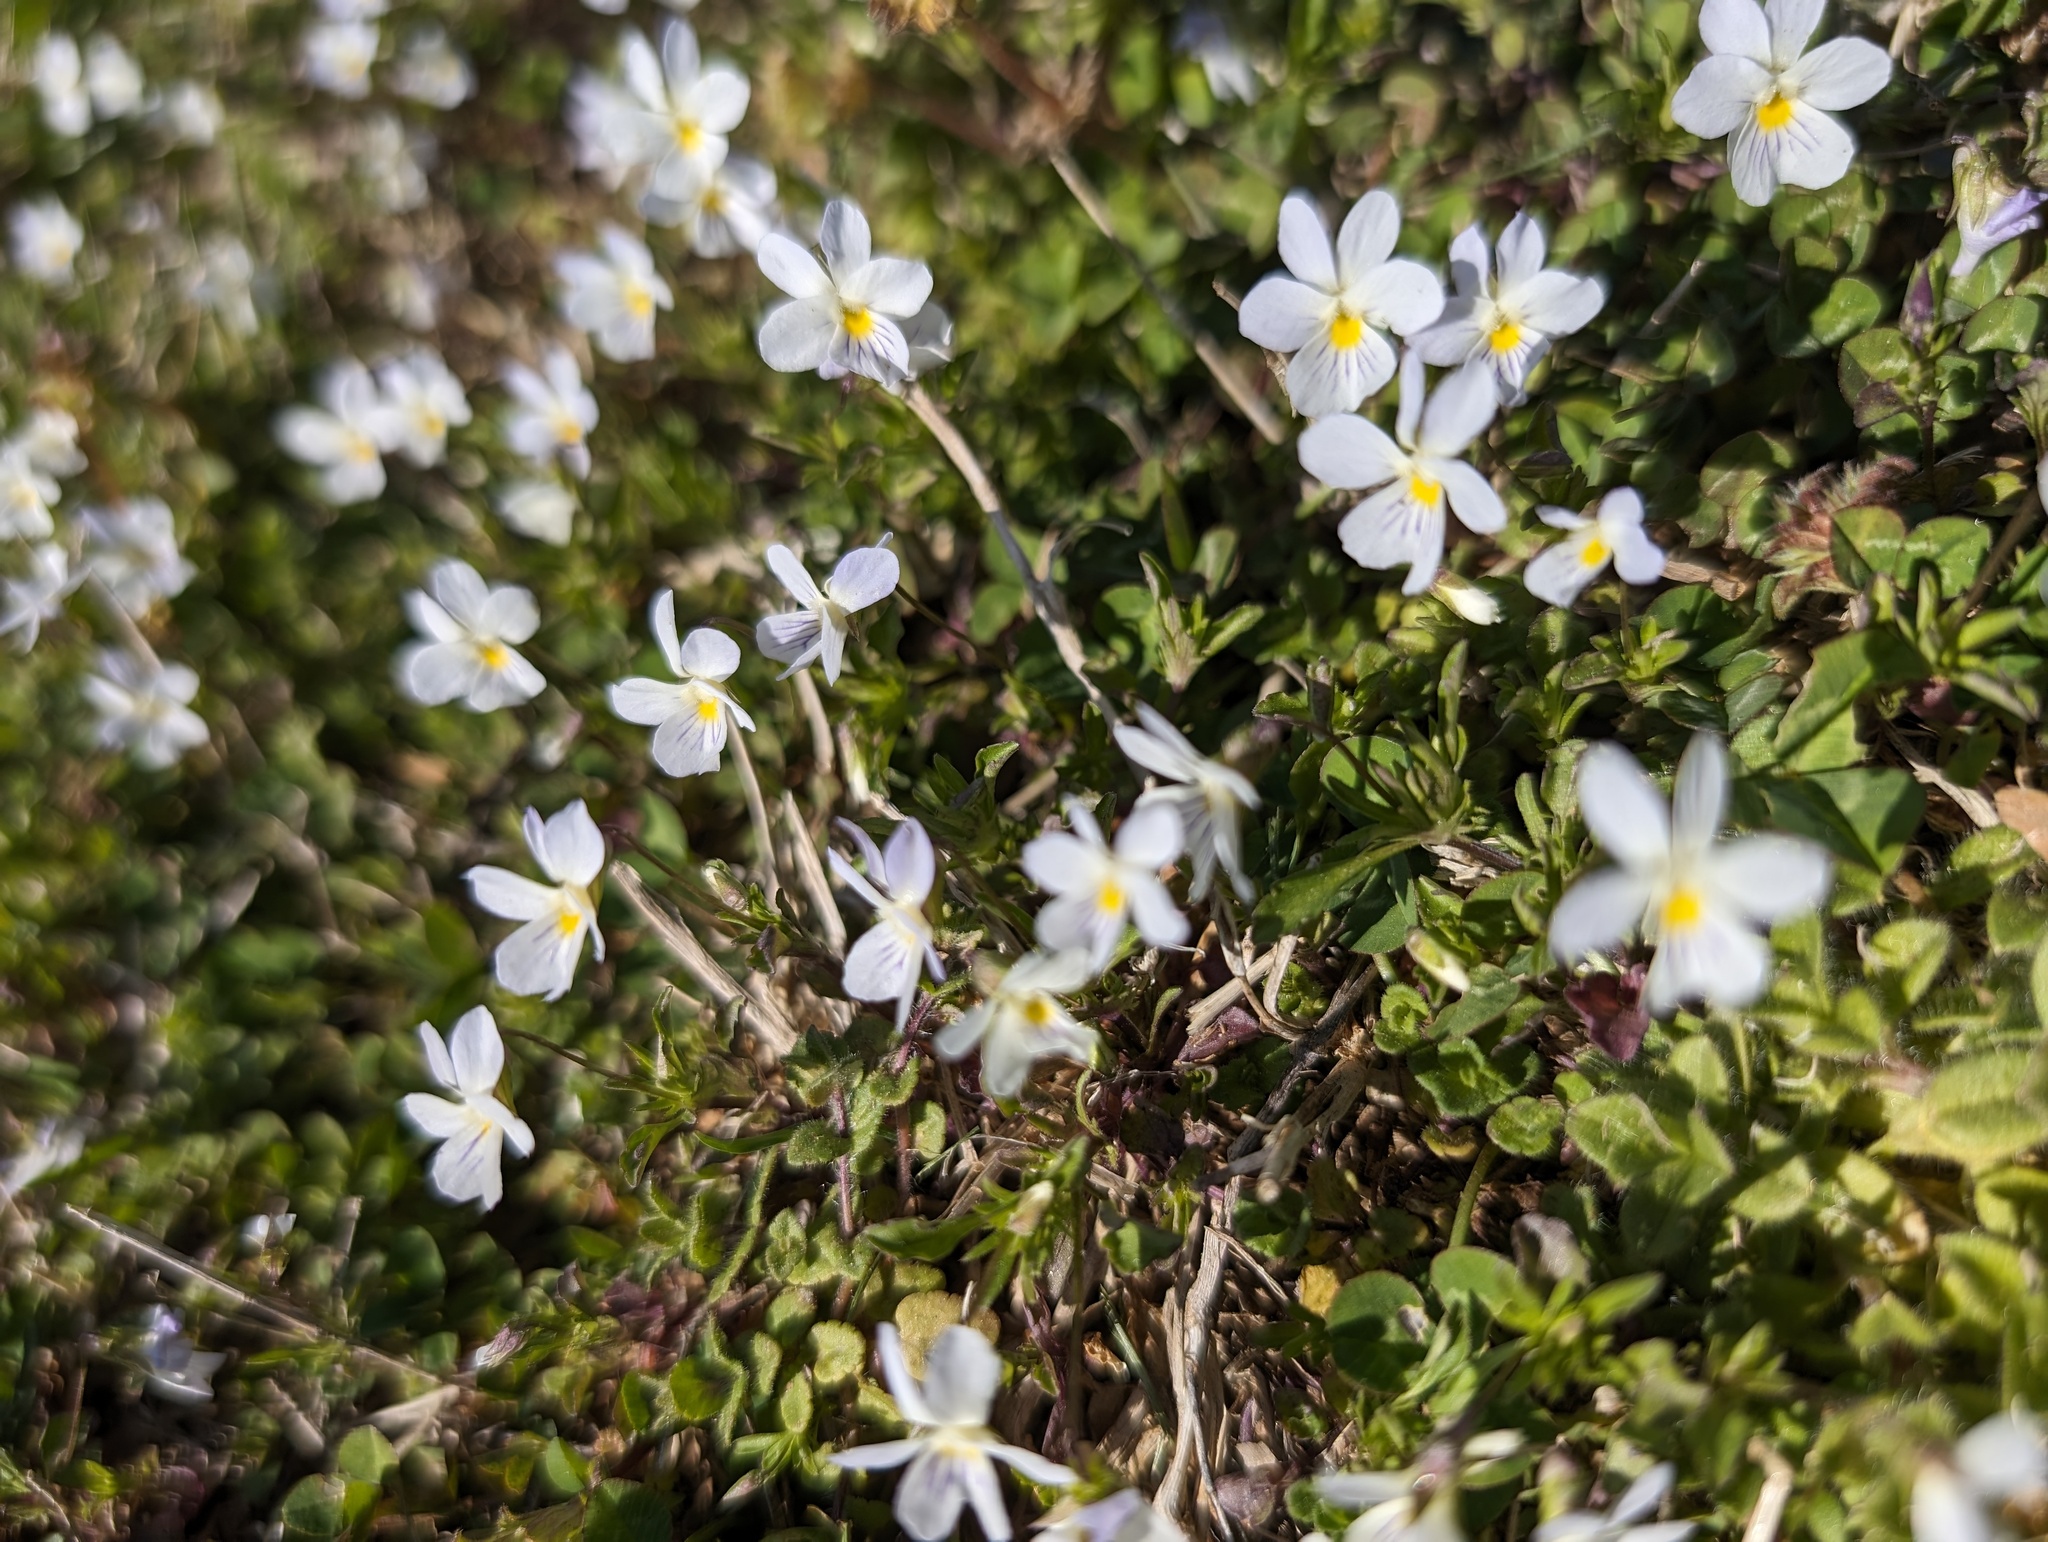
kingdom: Plantae
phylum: Tracheophyta
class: Magnoliopsida
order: Malpighiales
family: Violaceae
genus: Viola
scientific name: Viola rafinesquei
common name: American field pansy
